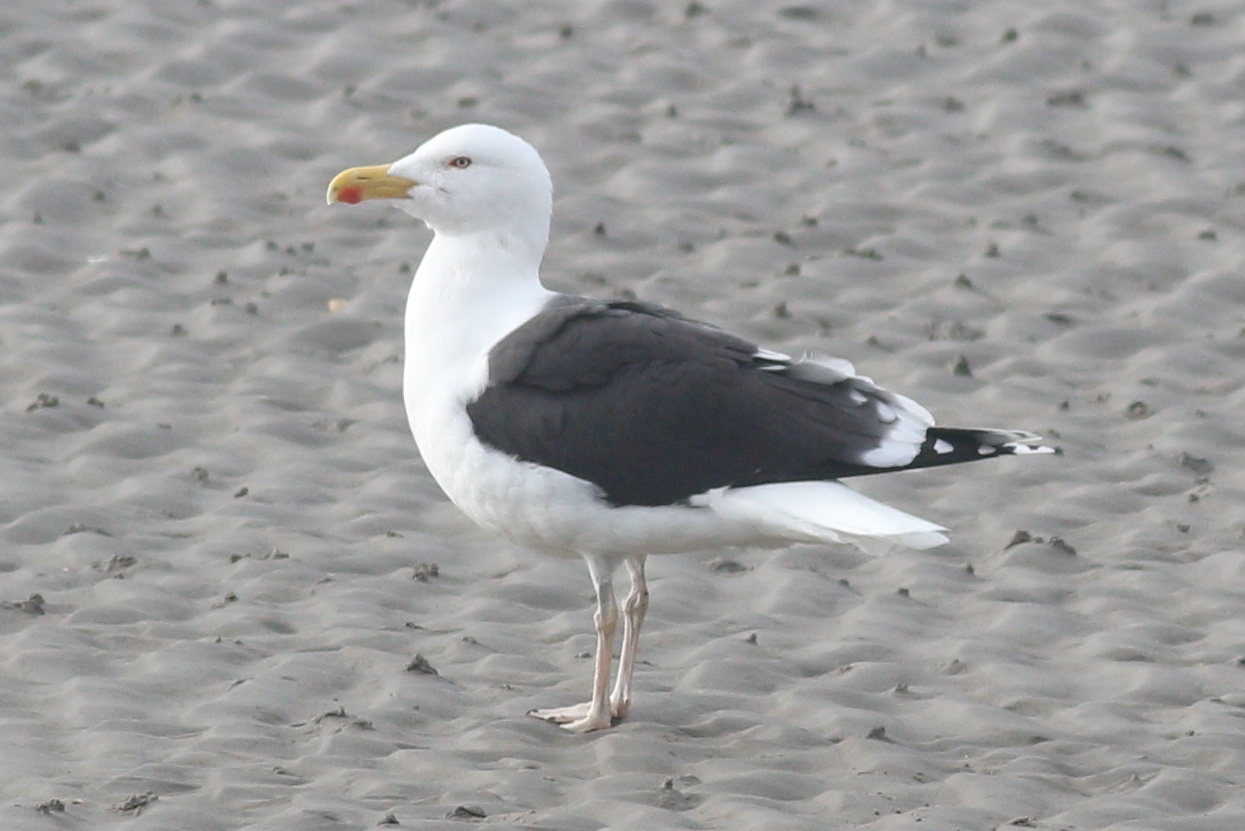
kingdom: Animalia
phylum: Chordata
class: Aves
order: Charadriiformes
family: Laridae
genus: Larus
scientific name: Larus marinus
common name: Great black-backed gull
